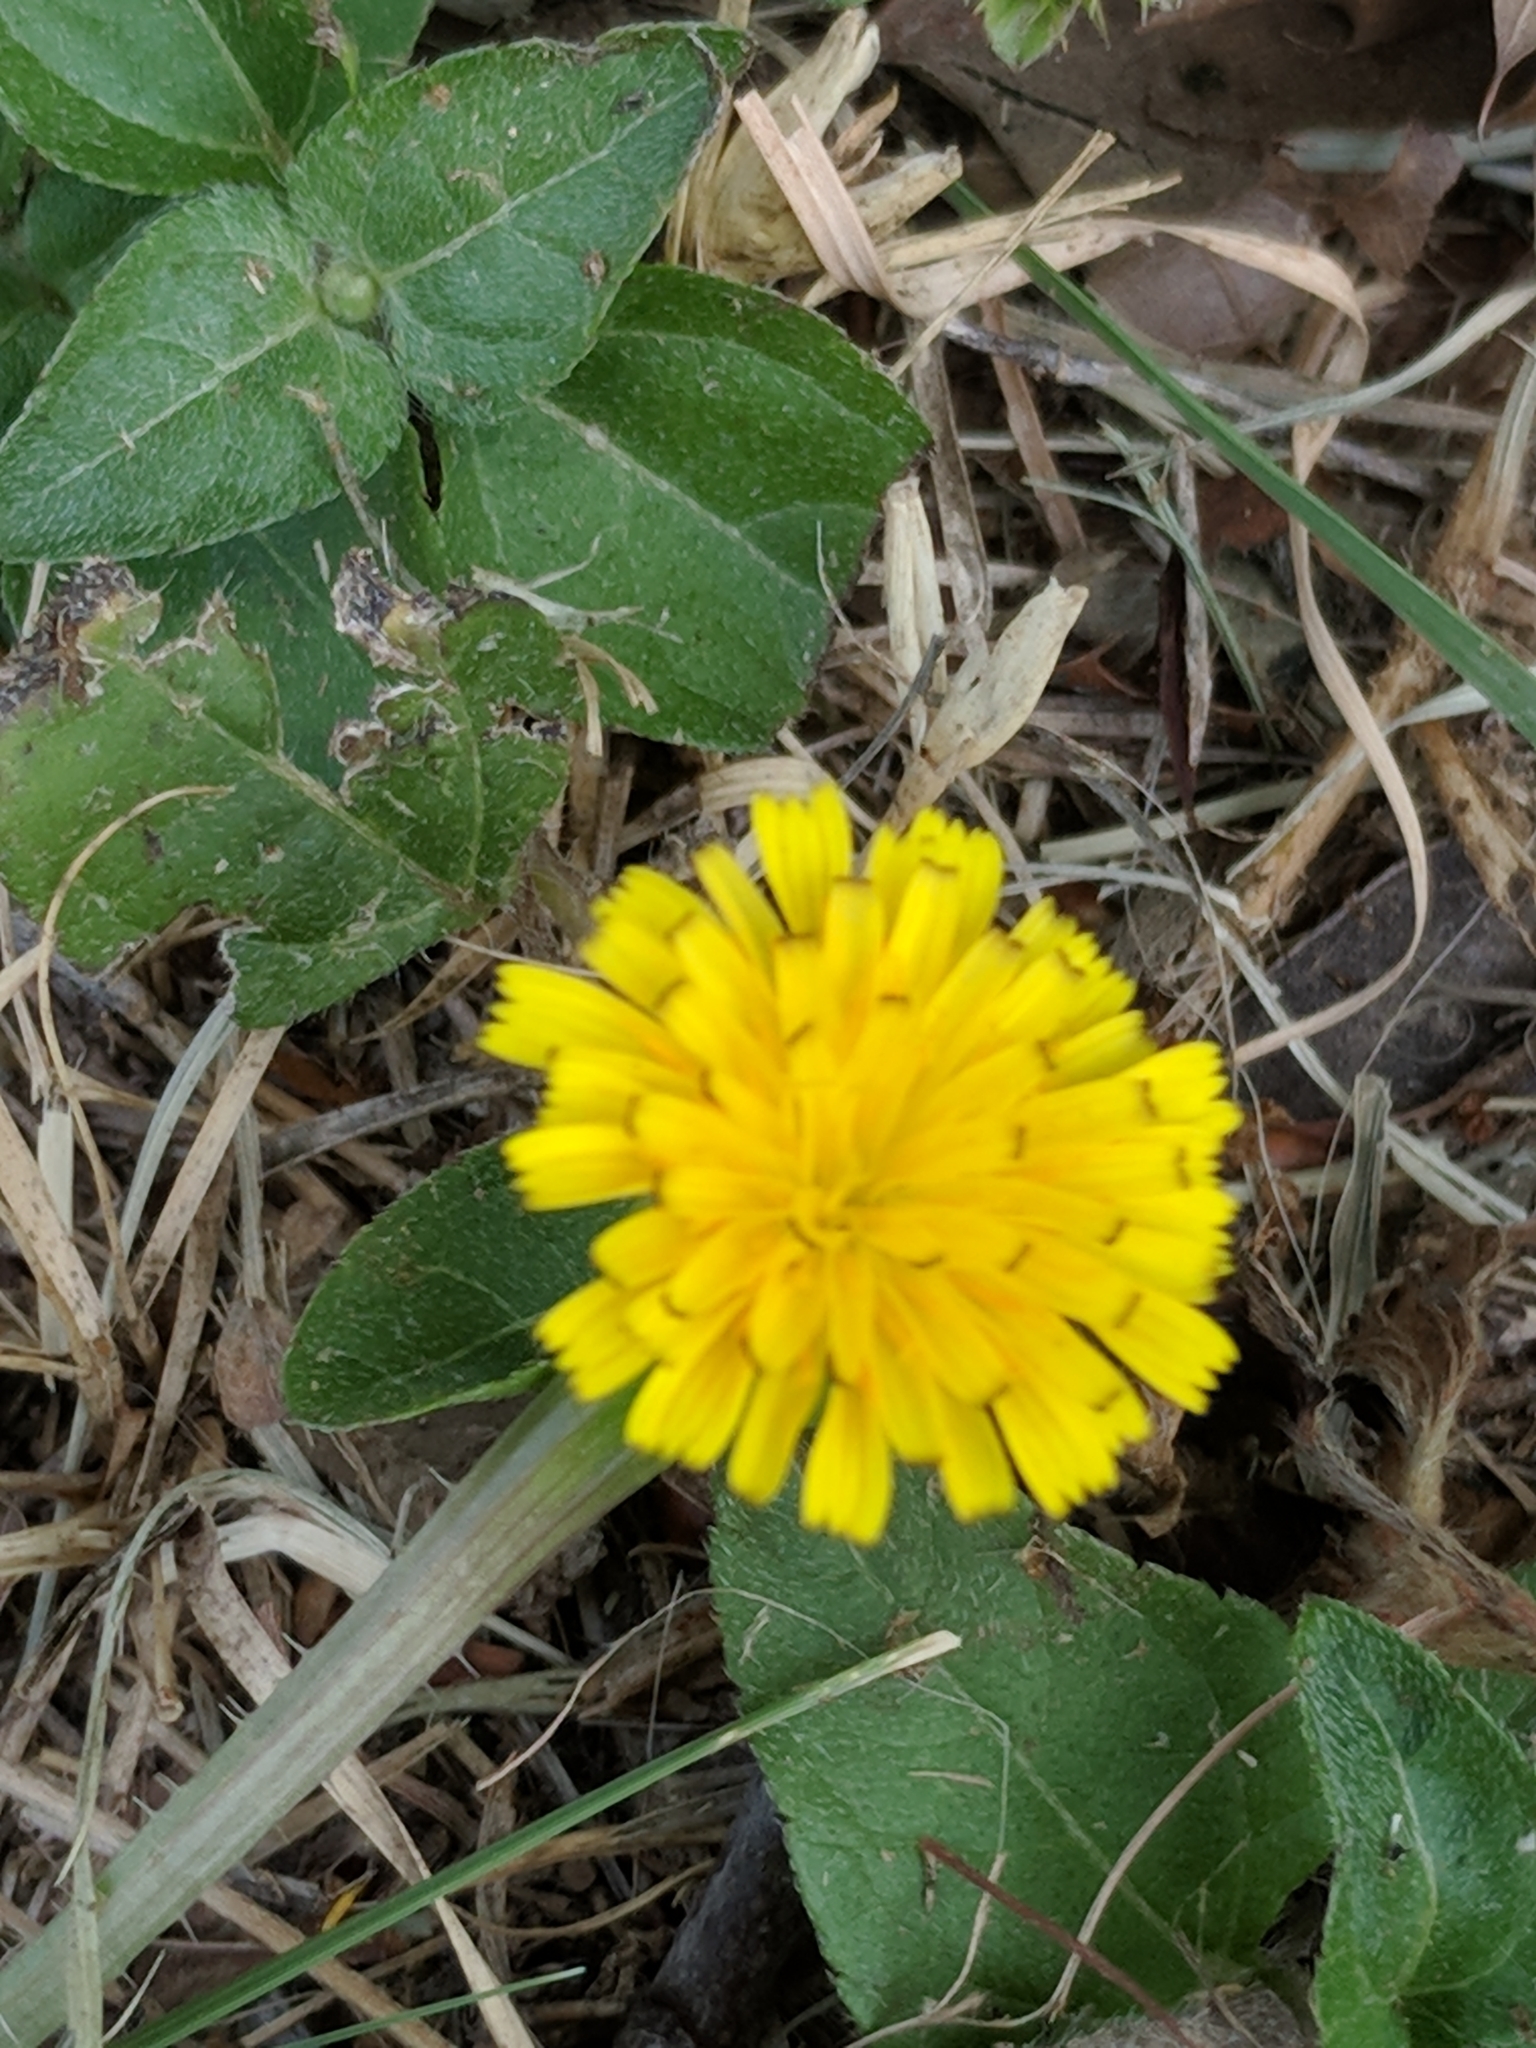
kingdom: Plantae
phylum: Tracheophyta
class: Magnoliopsida
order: Asterales
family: Asteraceae
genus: Hedypnois
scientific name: Hedypnois rhagadioloides
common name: Cretan weed
